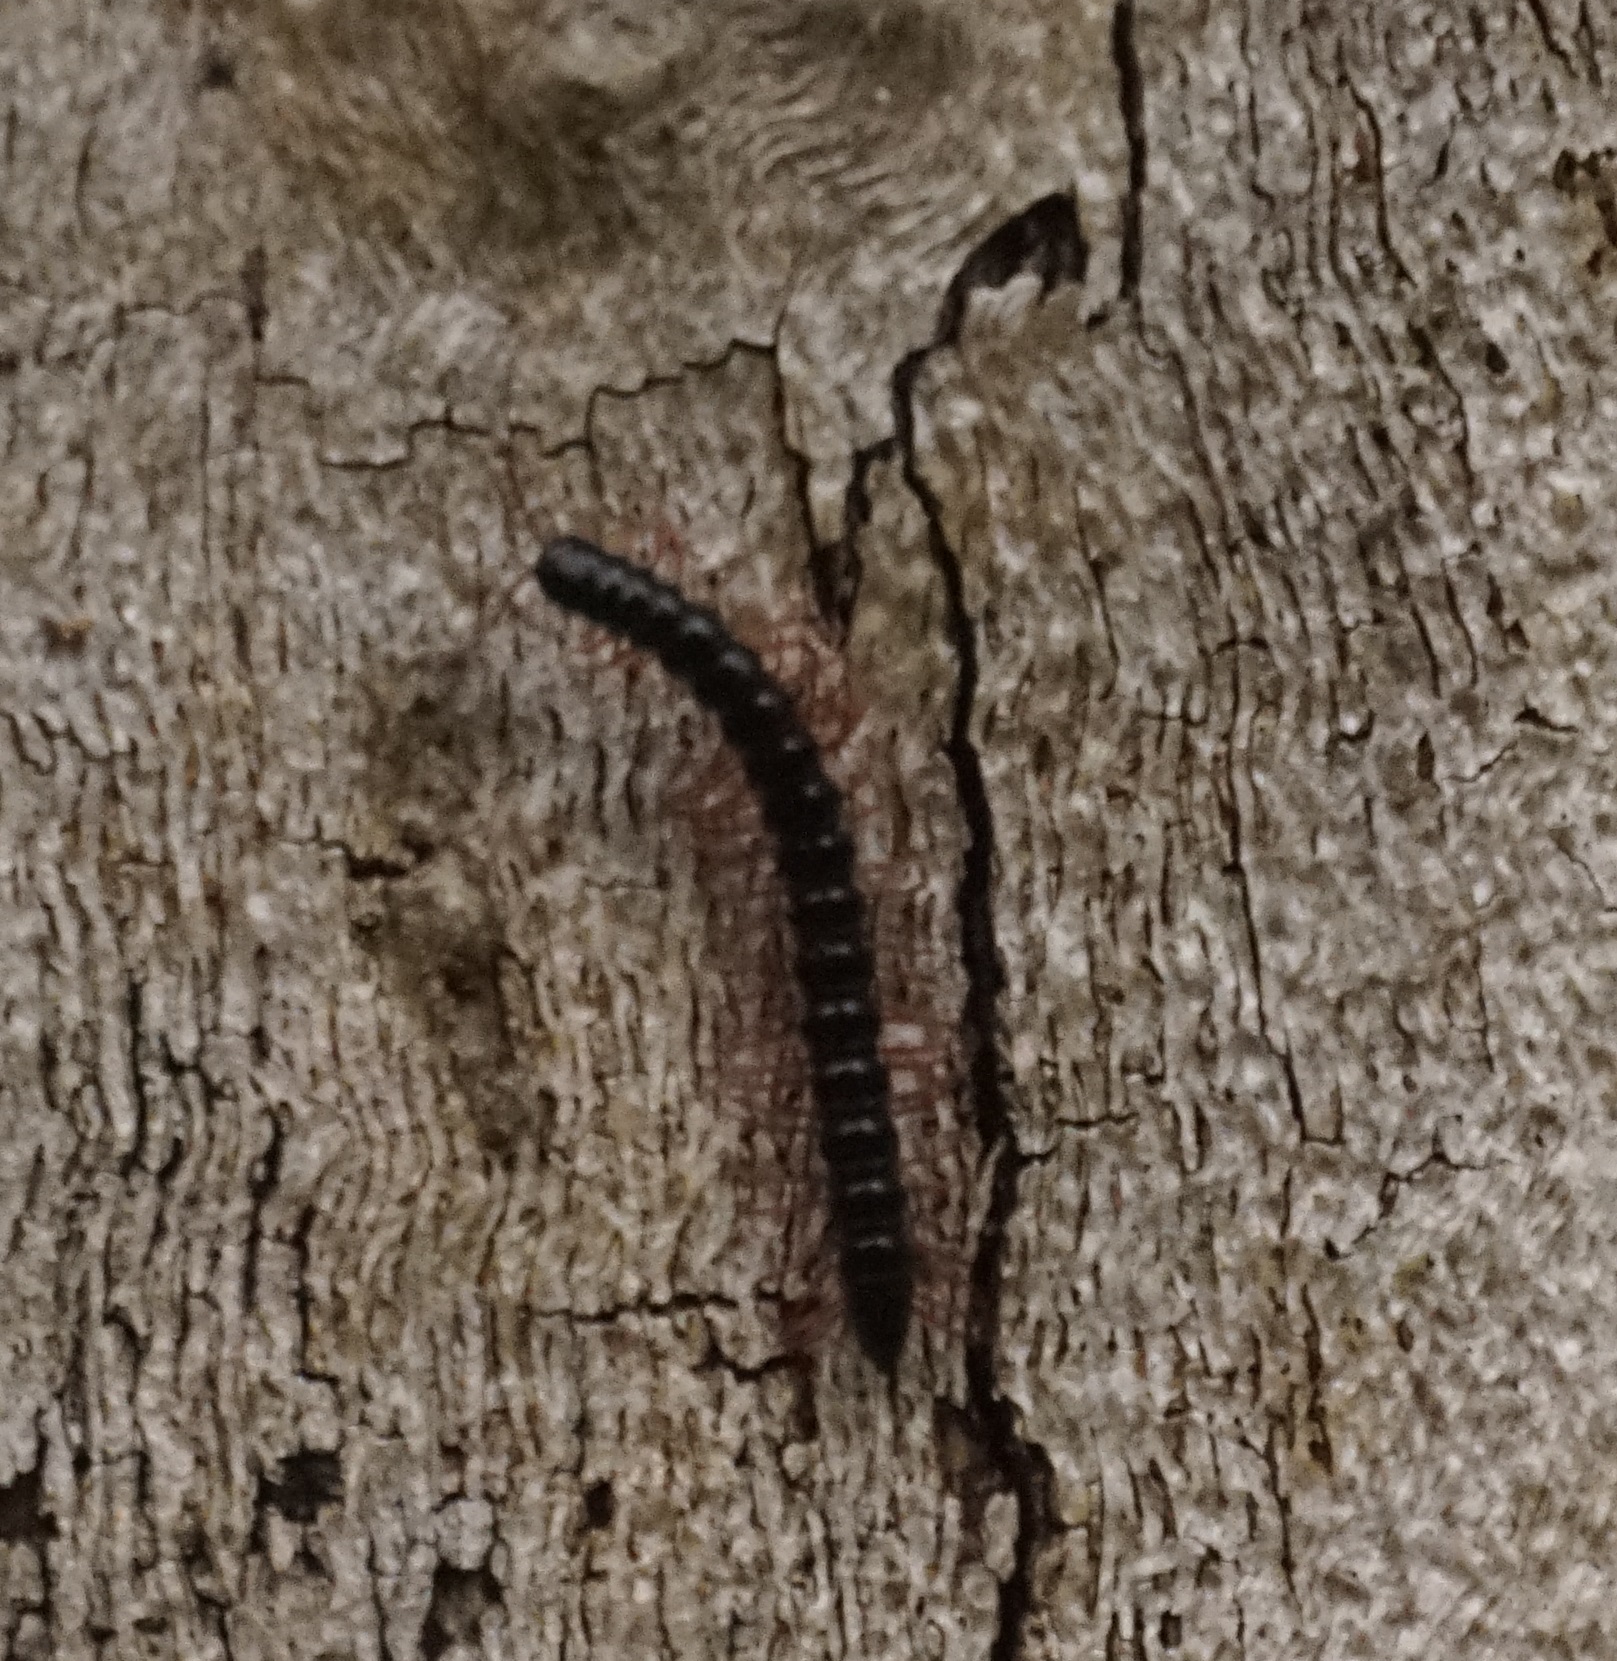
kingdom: Animalia
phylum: Arthropoda
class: Diplopoda
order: Polydesmida
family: Paradoxosomatidae
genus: Heterocladosoma
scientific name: Heterocladosoma
